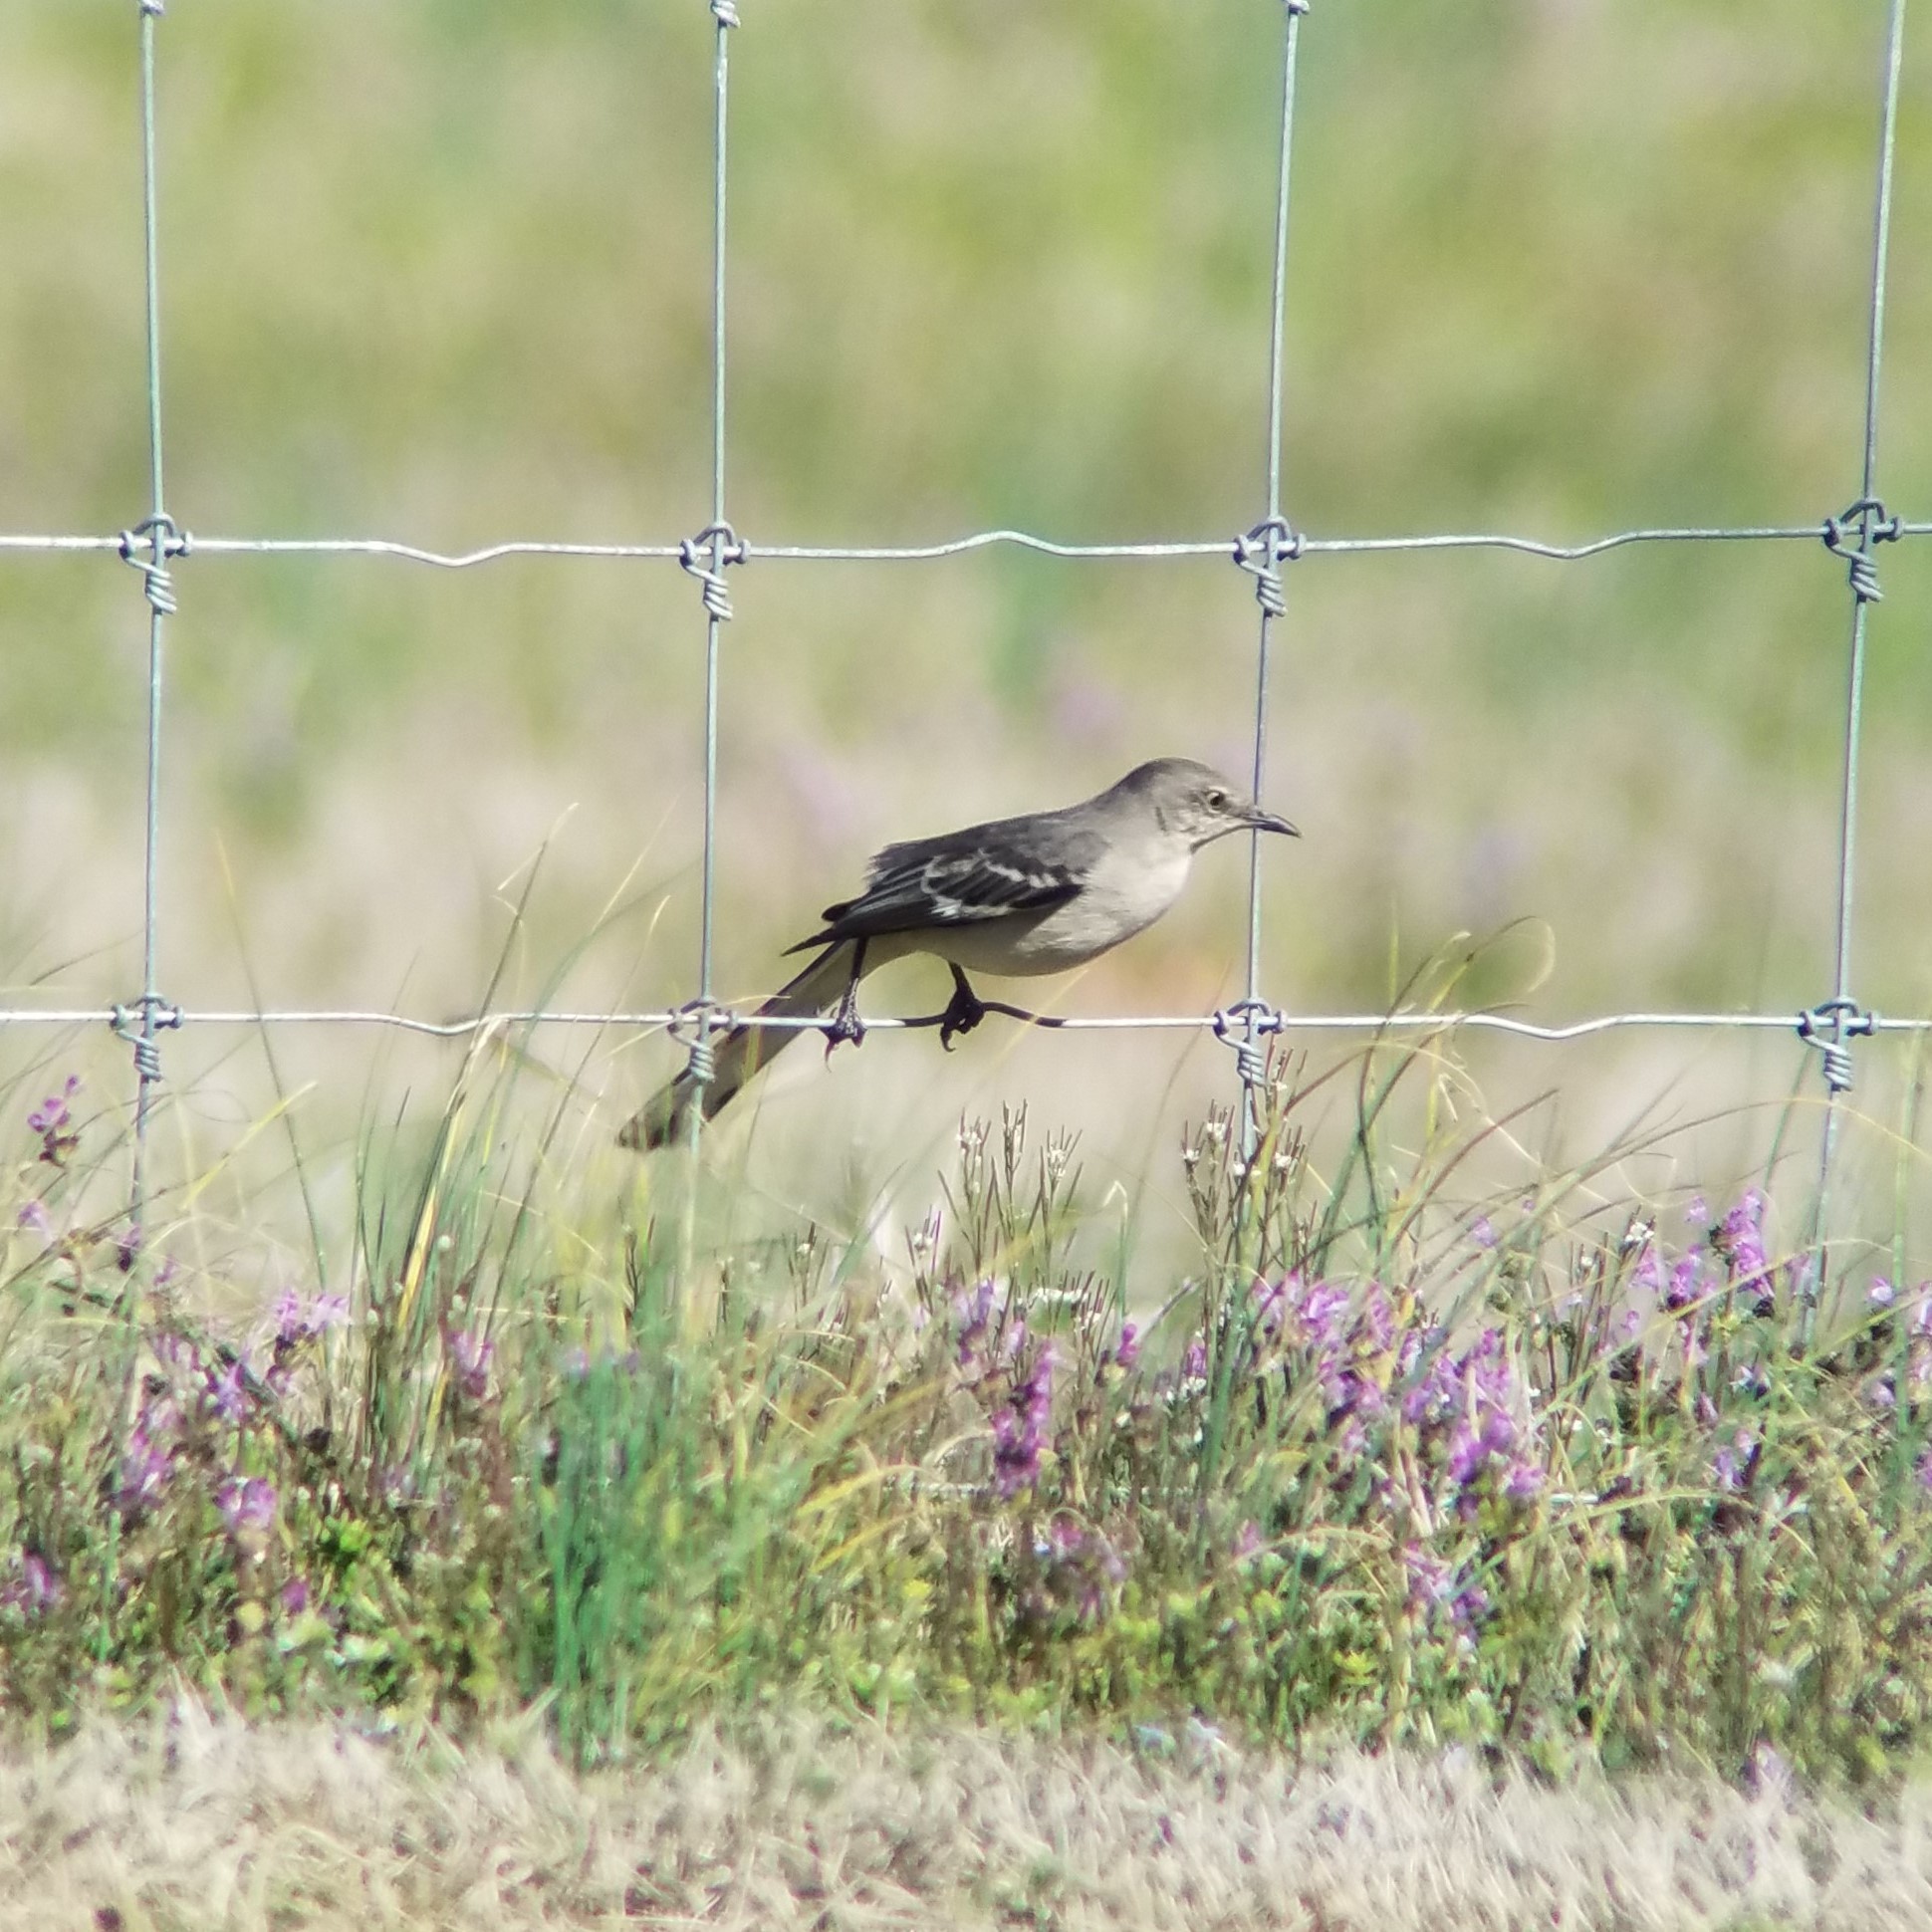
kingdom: Animalia
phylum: Chordata
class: Aves
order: Passeriformes
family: Mimidae
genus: Mimus
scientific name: Mimus polyglottos
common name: Northern mockingbird
